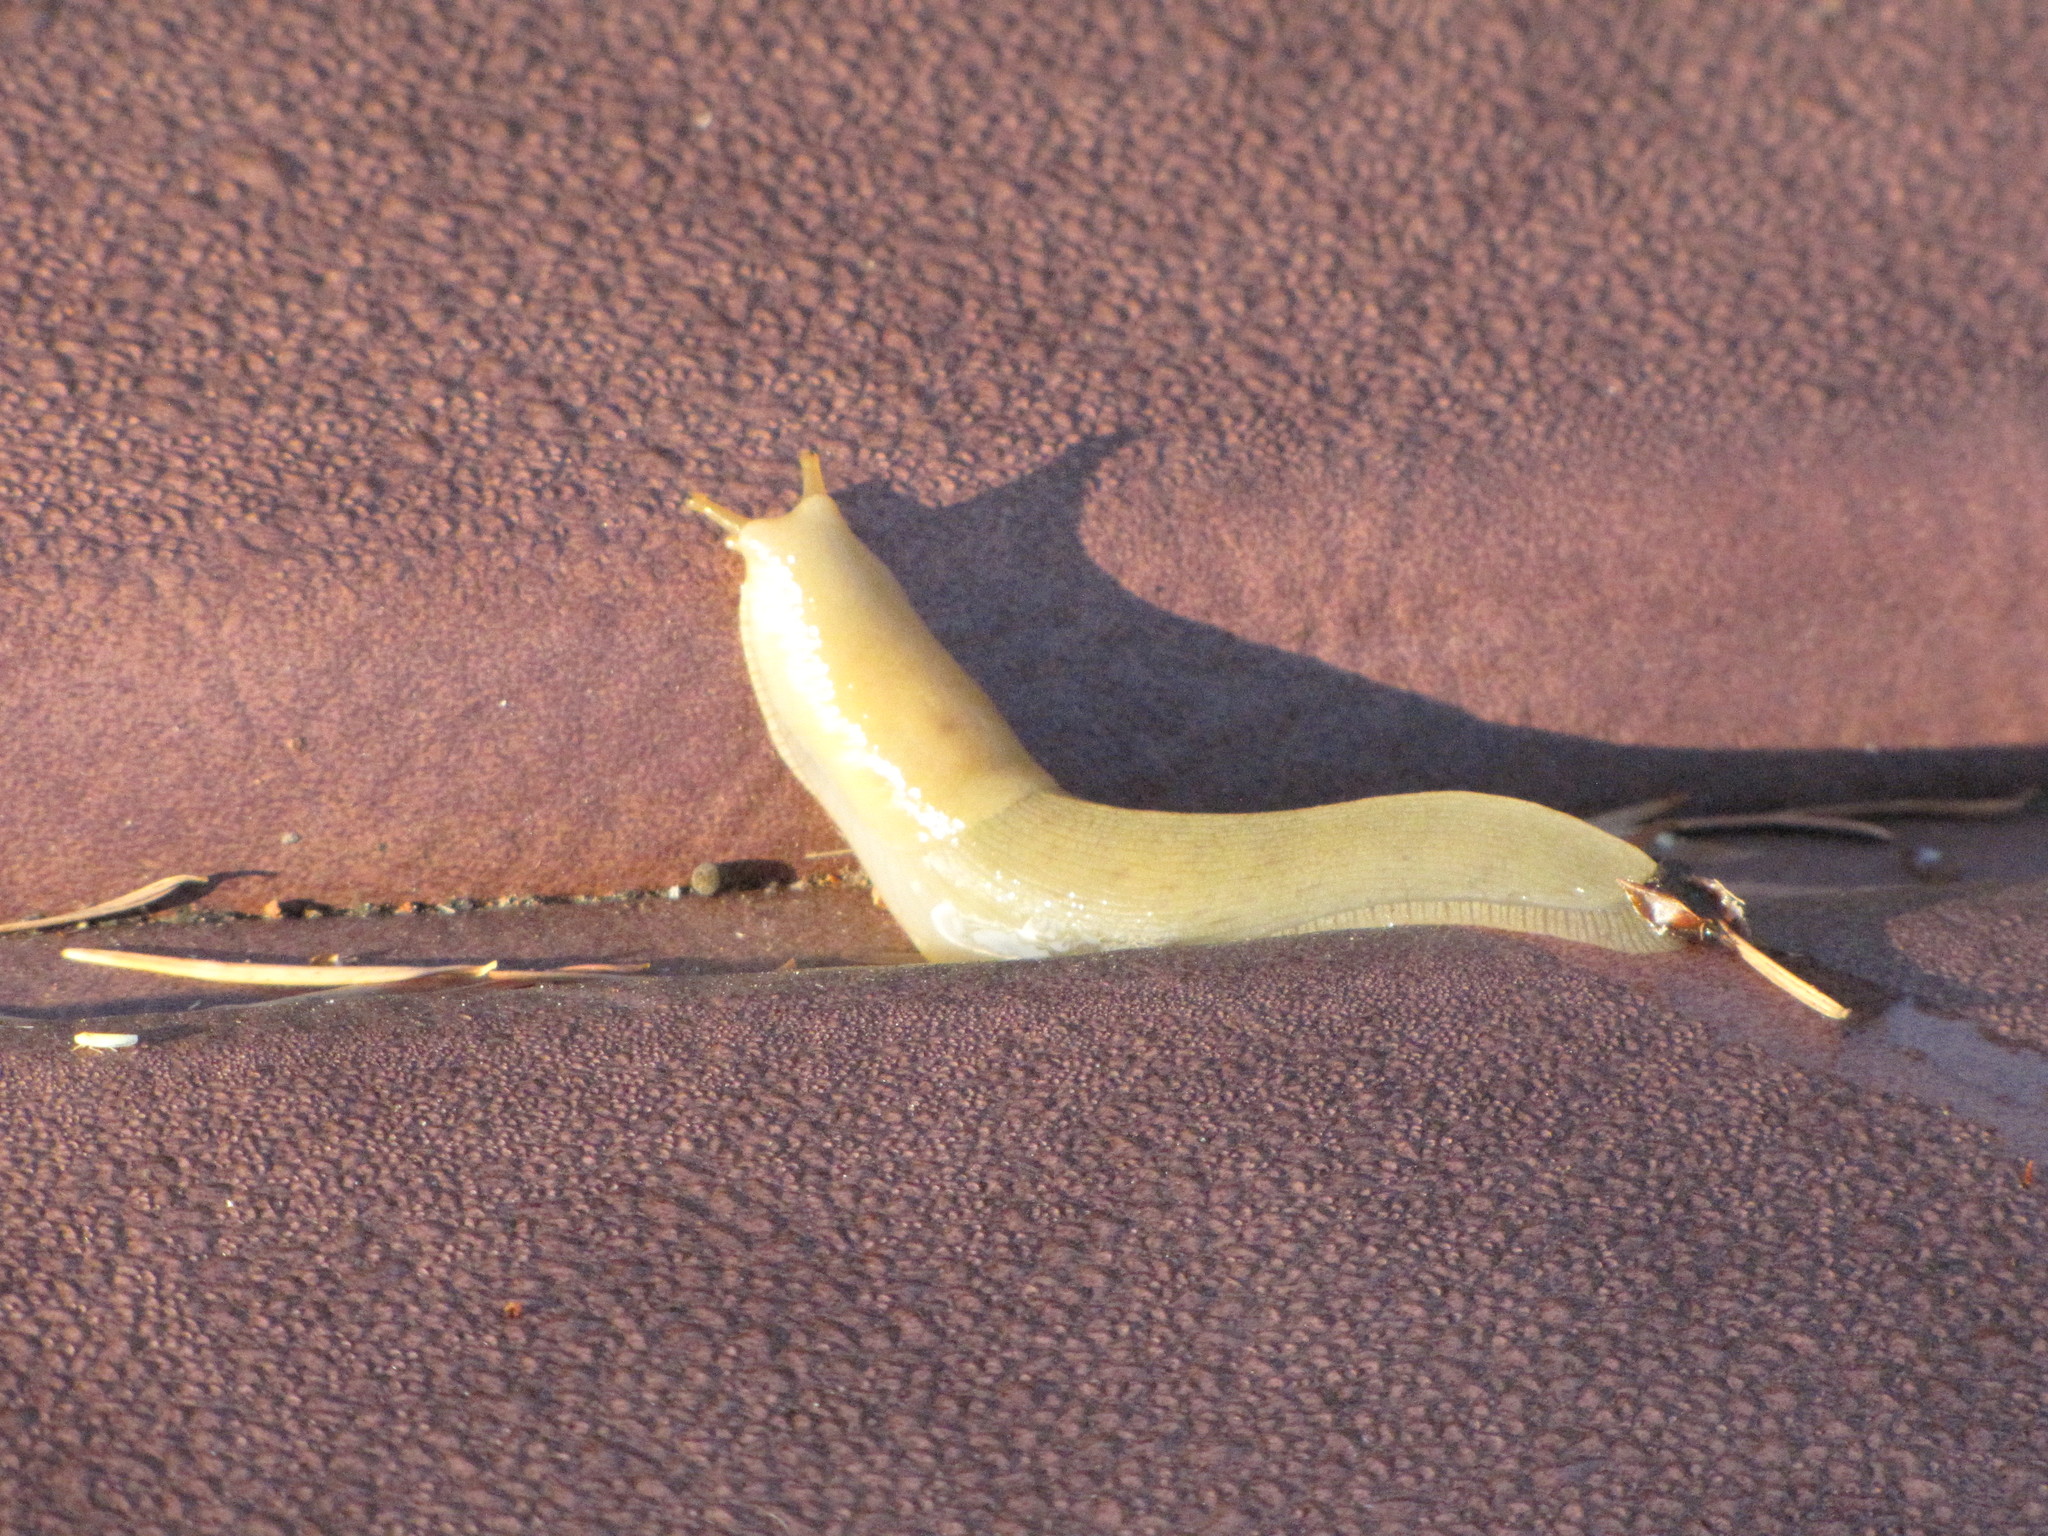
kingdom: Animalia
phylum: Mollusca
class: Gastropoda
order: Stylommatophora
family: Ariolimacidae
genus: Ariolimax
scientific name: Ariolimax columbianus
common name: Pacific banana slug
